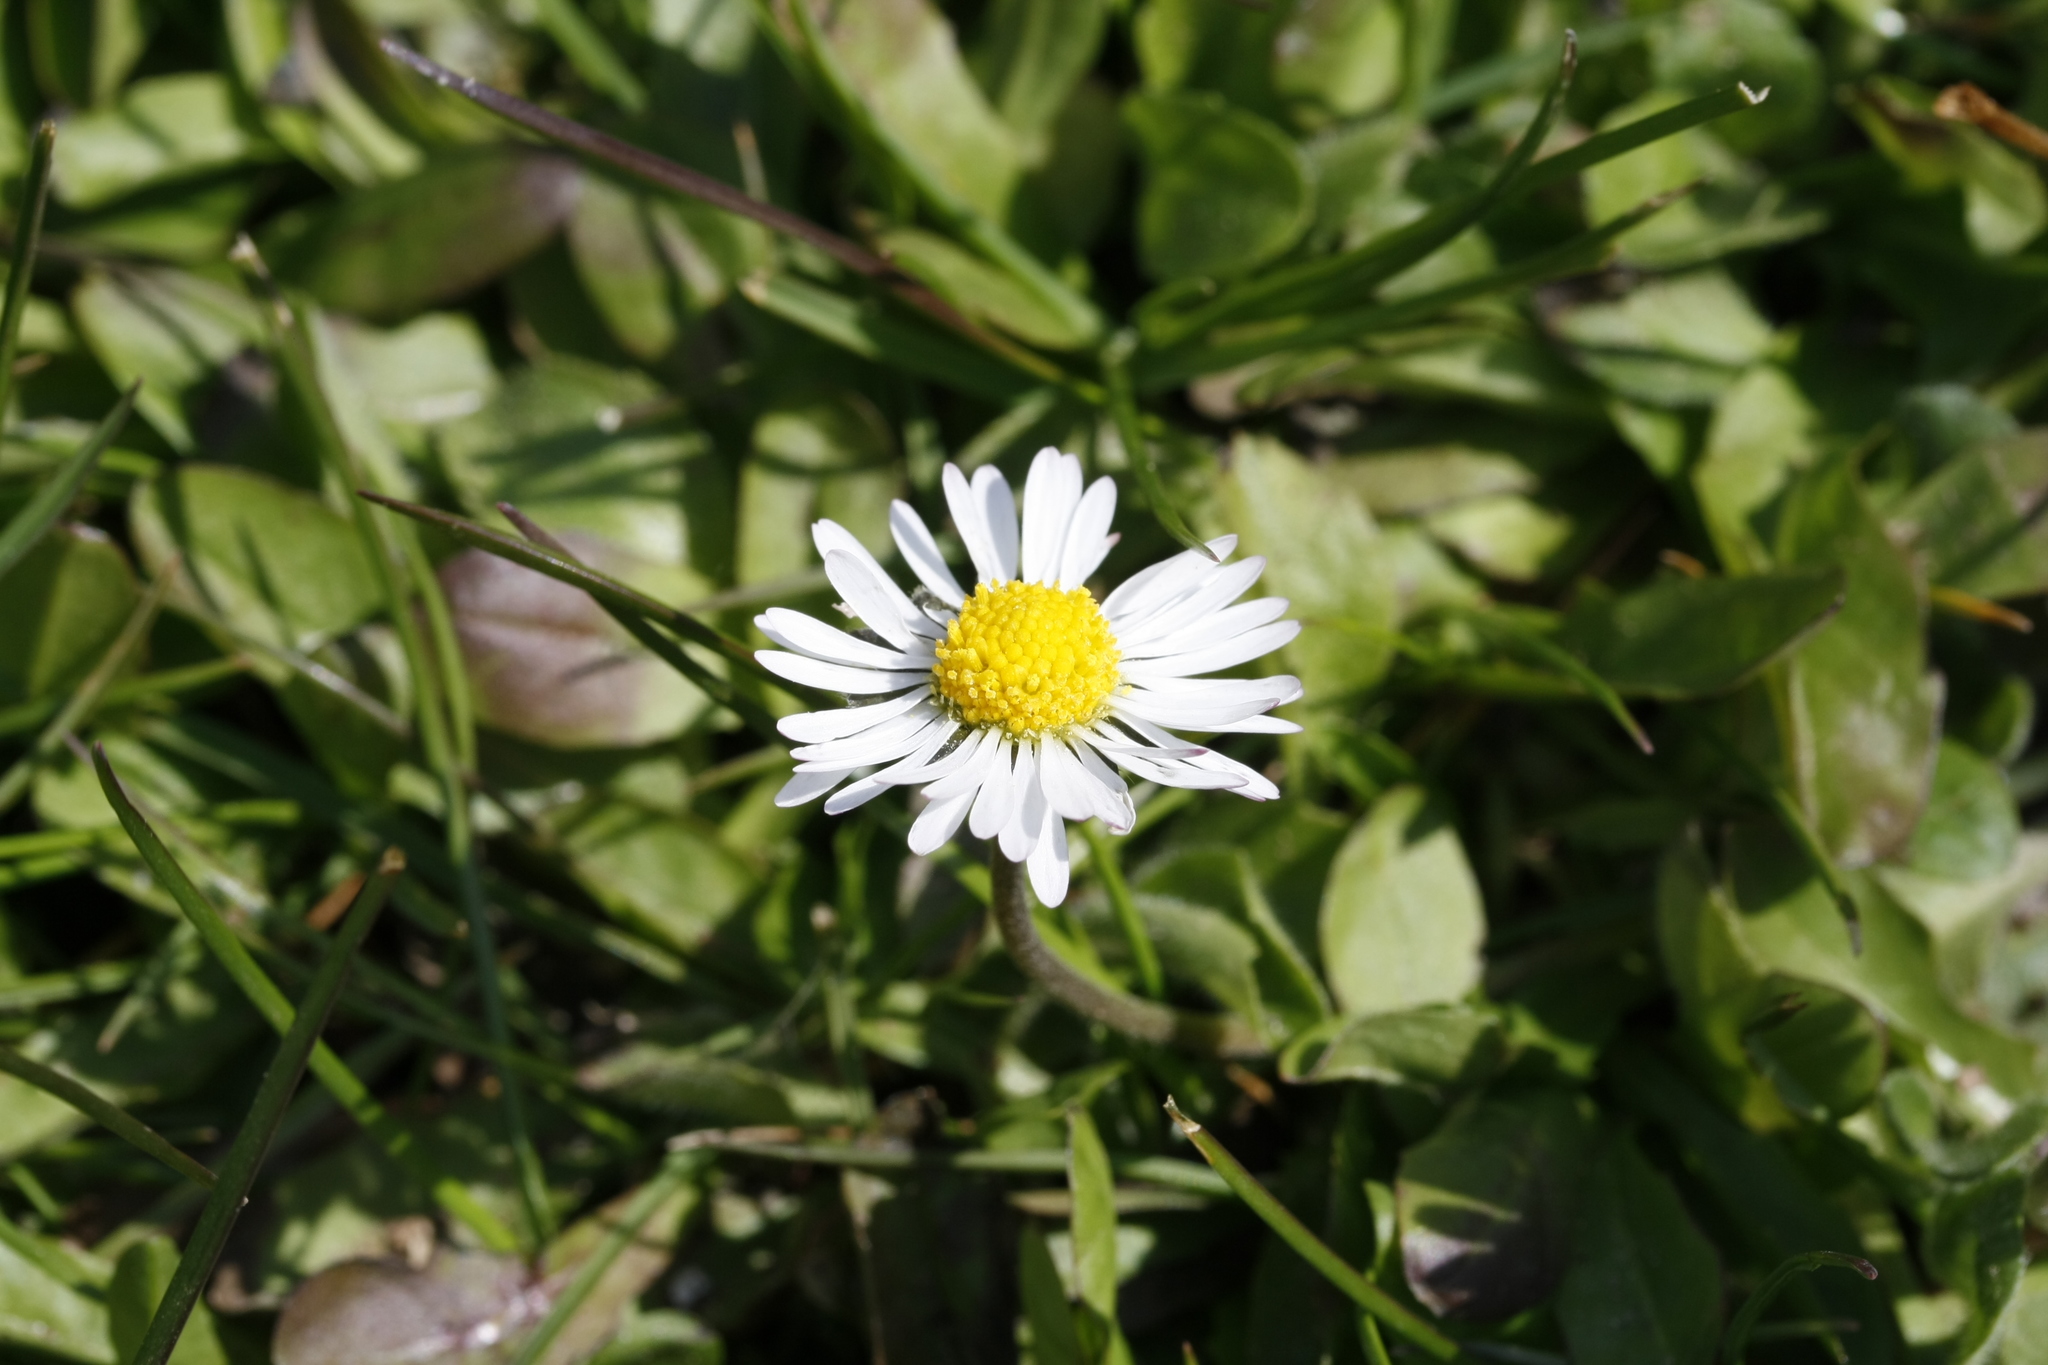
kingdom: Plantae
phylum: Tracheophyta
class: Magnoliopsida
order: Asterales
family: Asteraceae
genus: Bellis
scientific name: Bellis perennis
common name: Lawndaisy
